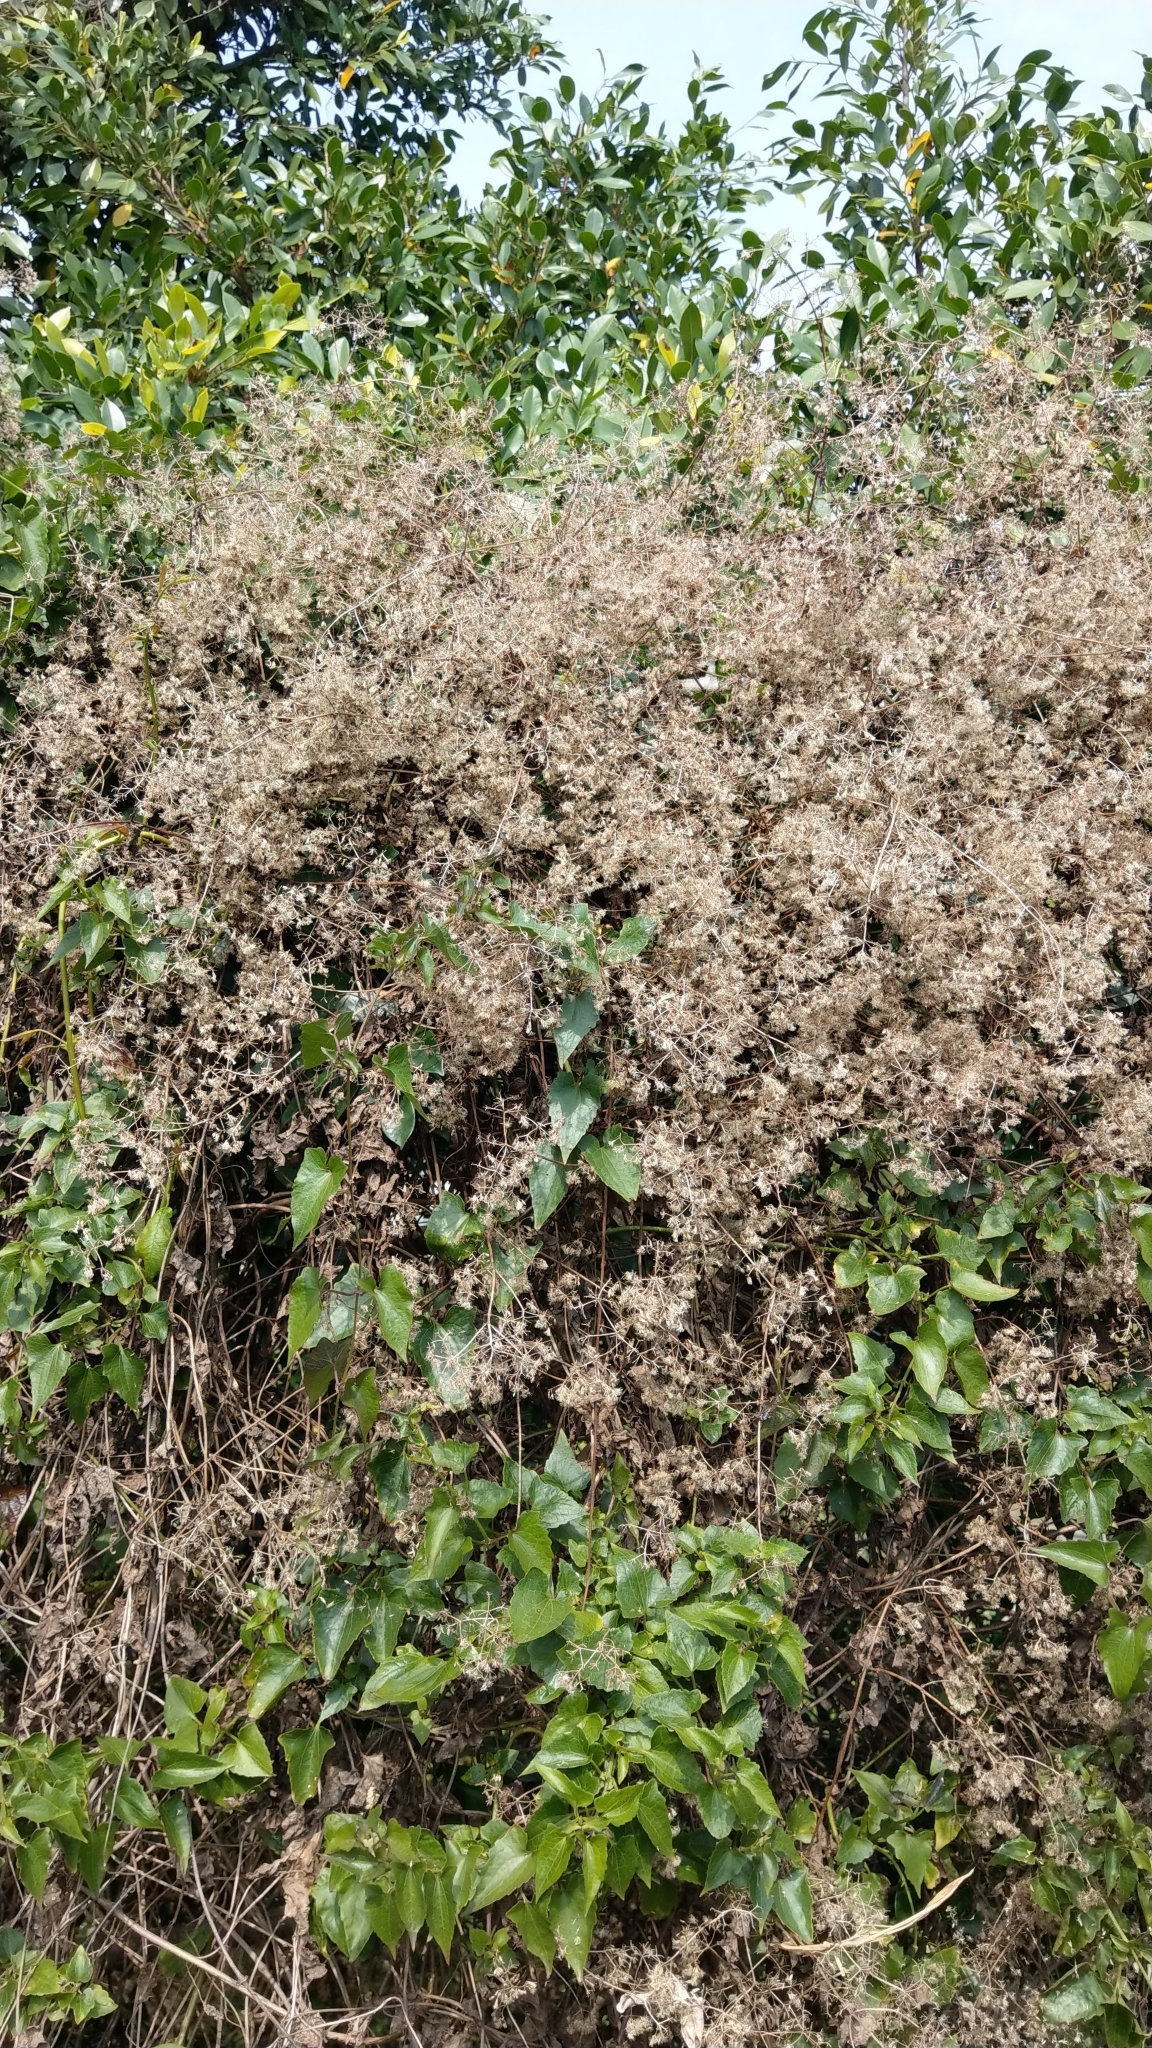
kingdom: Plantae
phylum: Tracheophyta
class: Magnoliopsida
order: Asterales
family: Asteraceae
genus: Mikania
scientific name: Mikania micrantha
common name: Mile-a-minute
